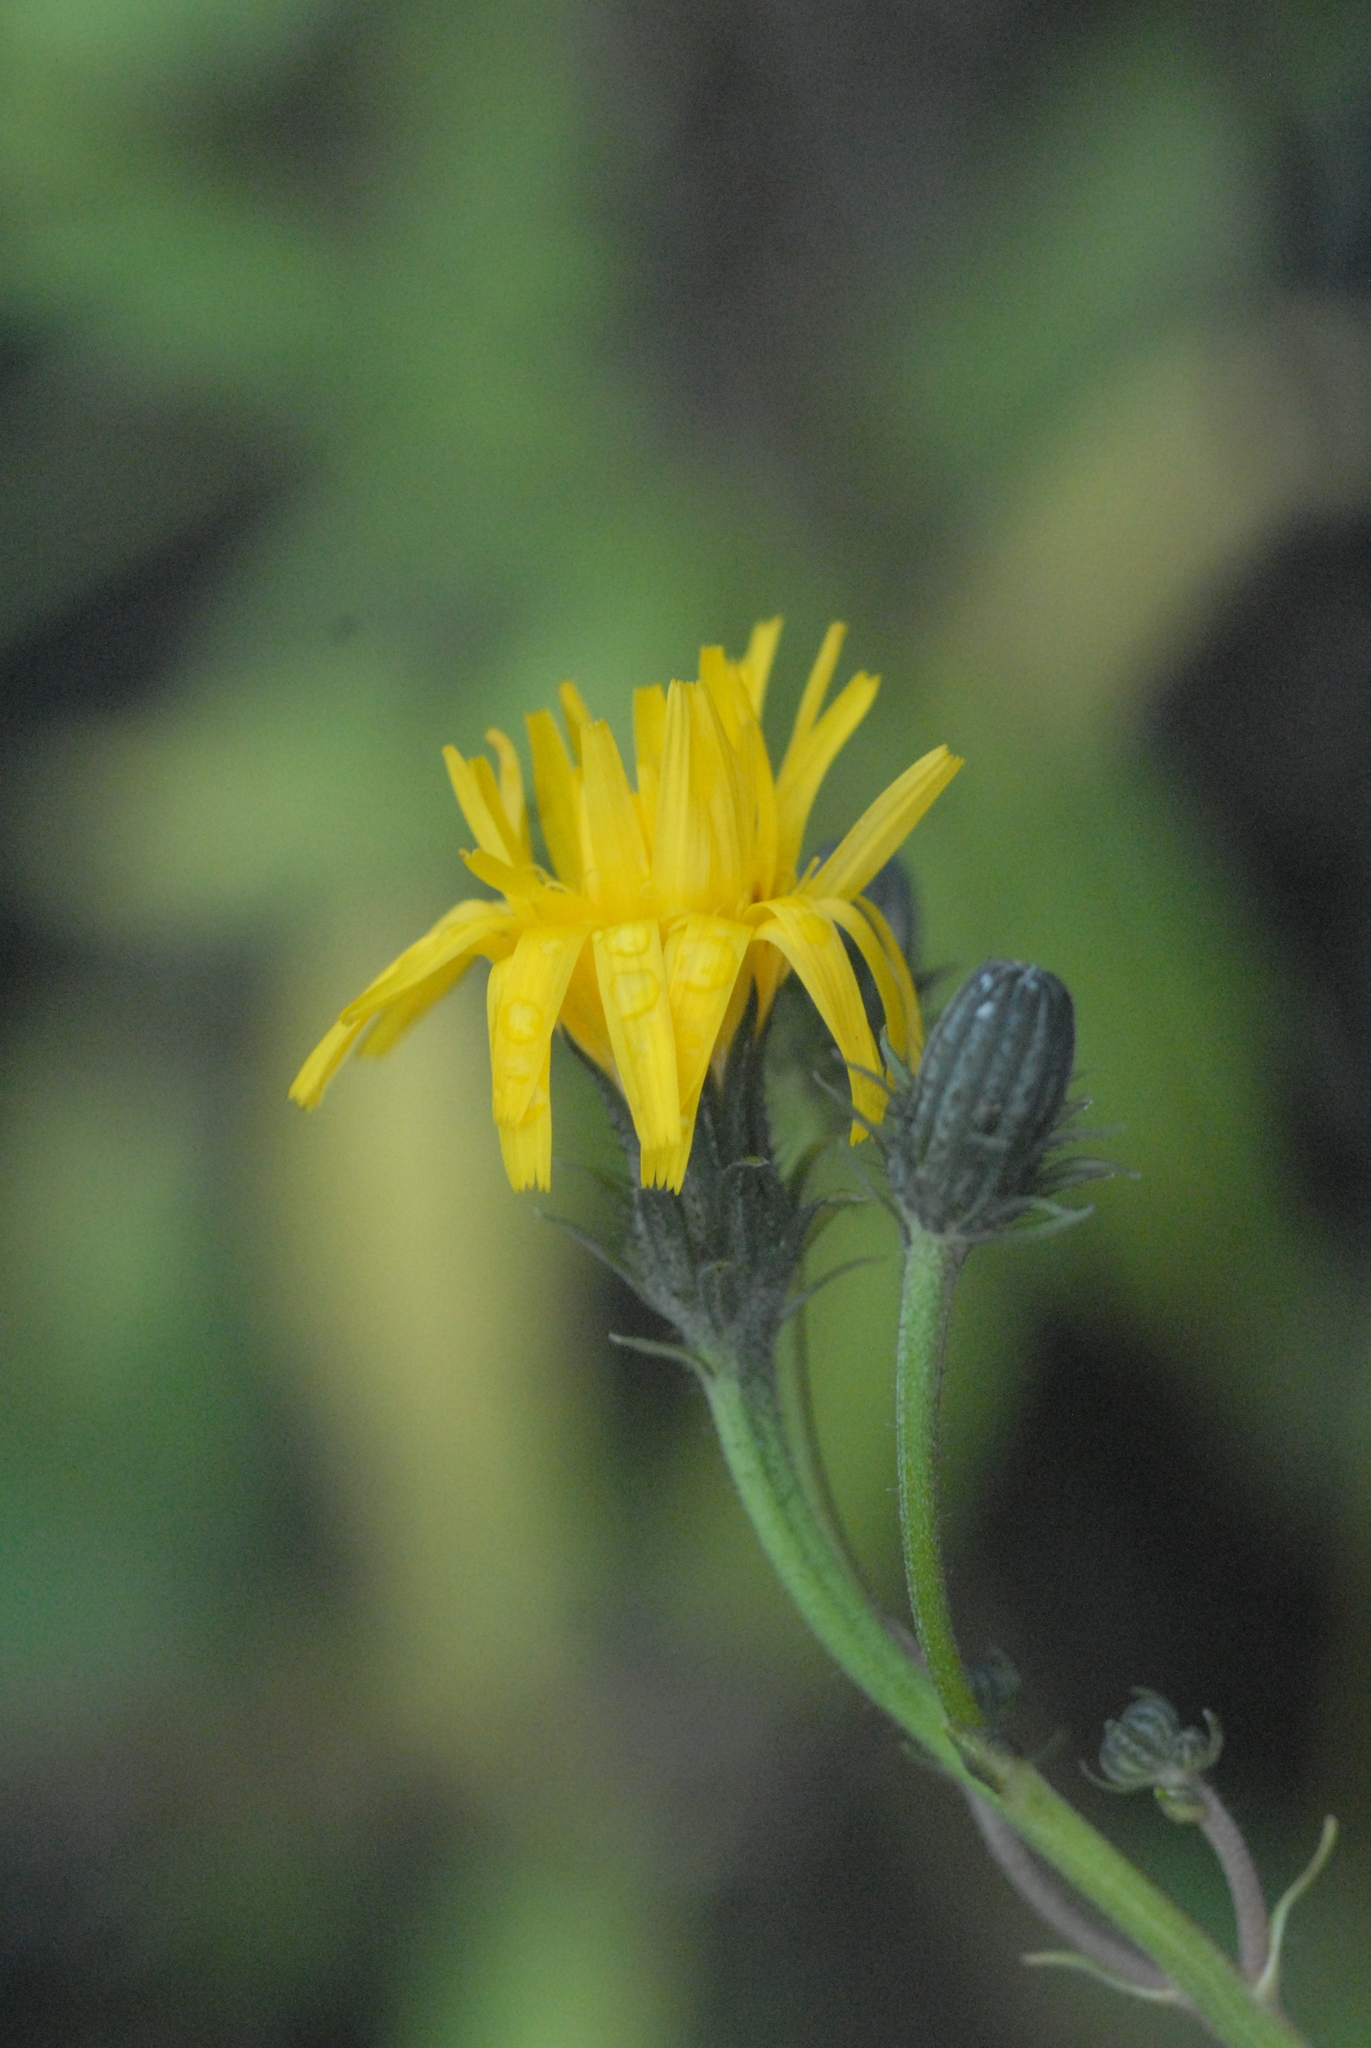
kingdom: Plantae
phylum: Tracheophyta
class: Magnoliopsida
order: Asterales
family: Asteraceae
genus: Picris
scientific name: Picris hieracioides
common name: Hawkweed oxtongue
